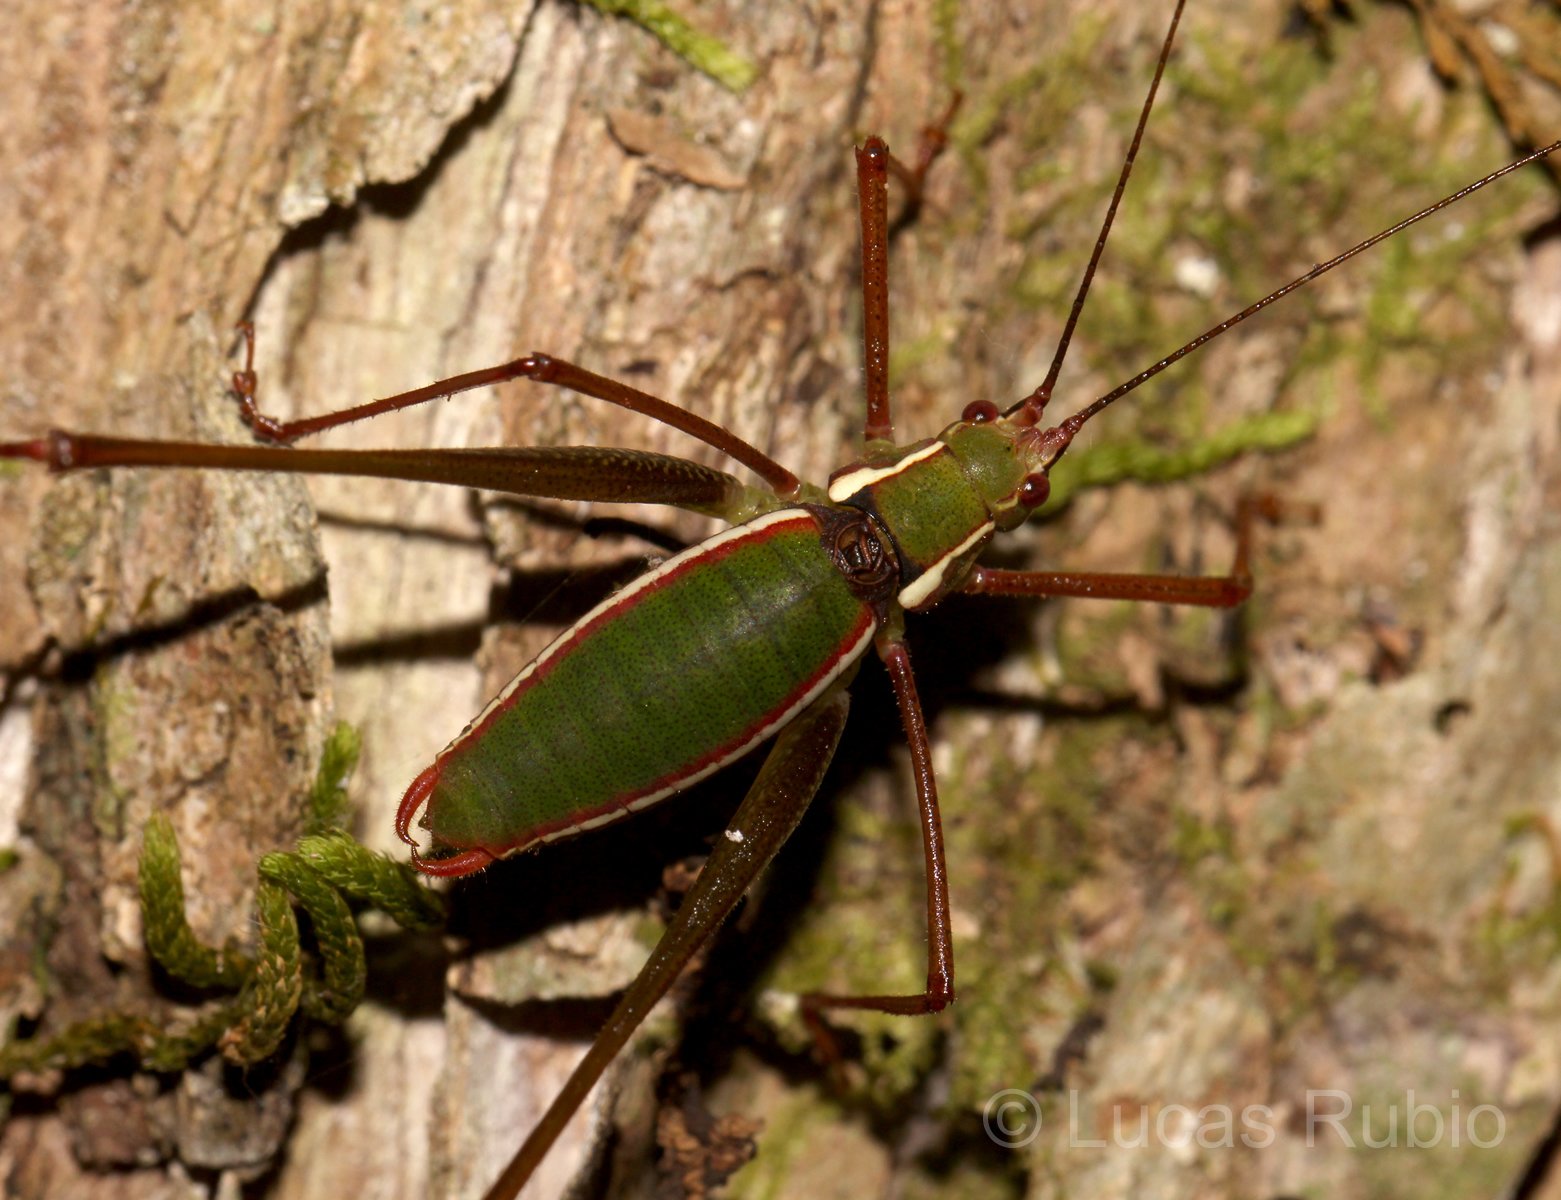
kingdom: Animalia
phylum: Arthropoda
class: Insecta
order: Orthoptera
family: Tettigoniidae
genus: Xenicola
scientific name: Xenicola xukrixi
